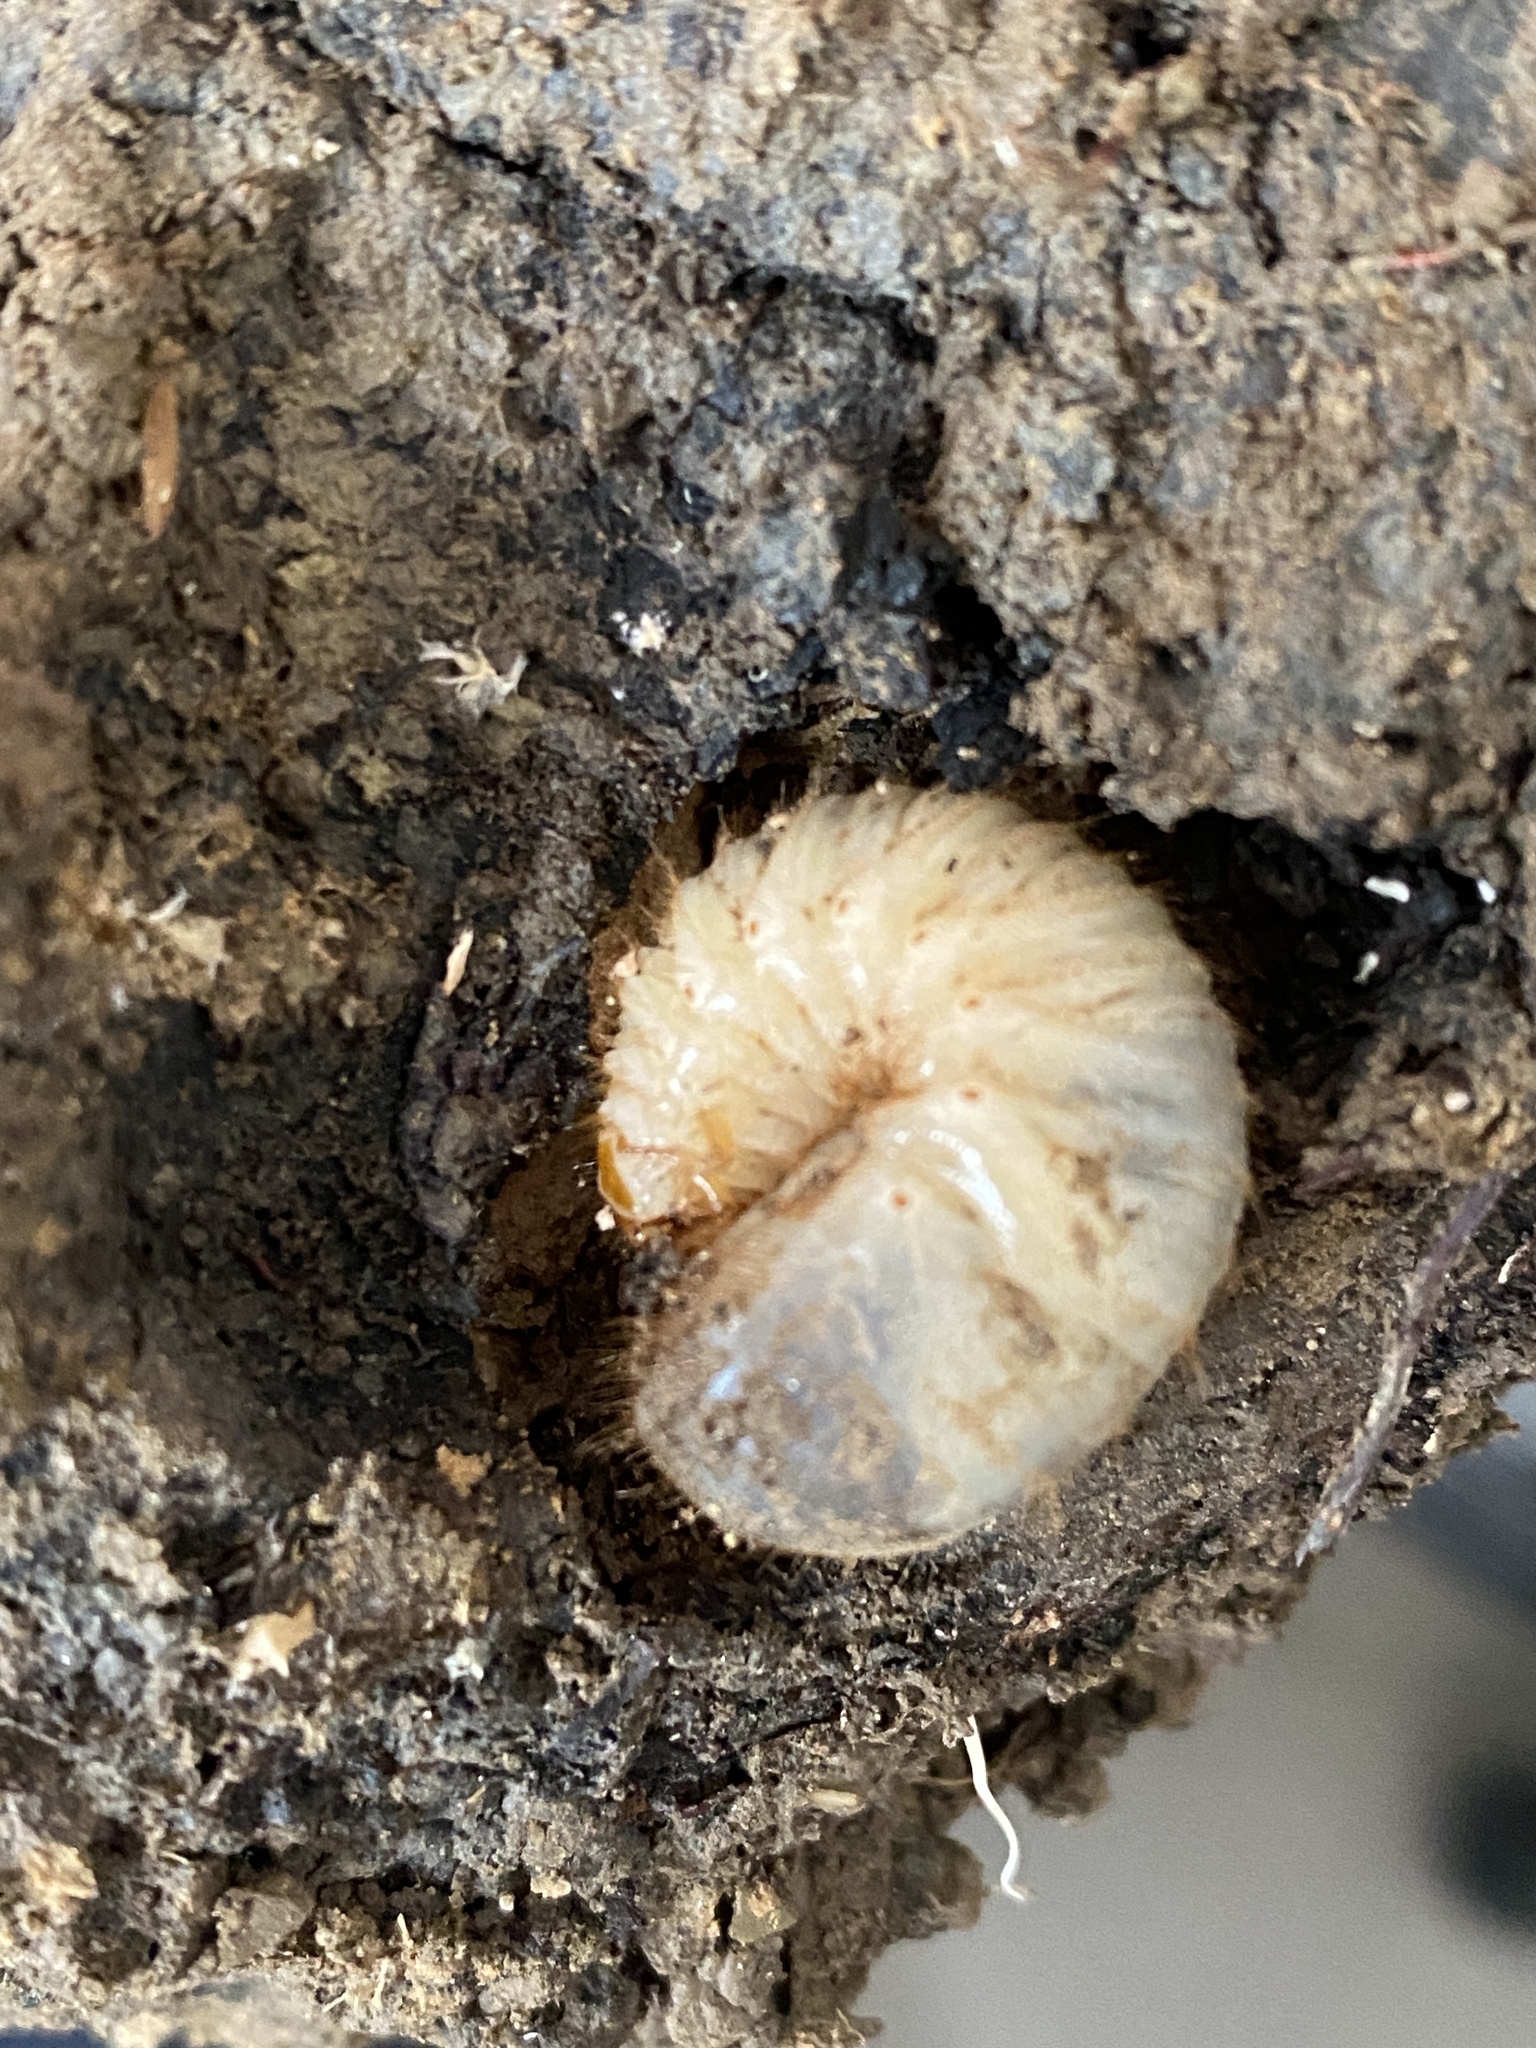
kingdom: Animalia
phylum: Arthropoda
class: Insecta
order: Coleoptera
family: Scarabaeidae
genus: Cetonia
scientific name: Cetonia aurata
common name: Rose chafer
